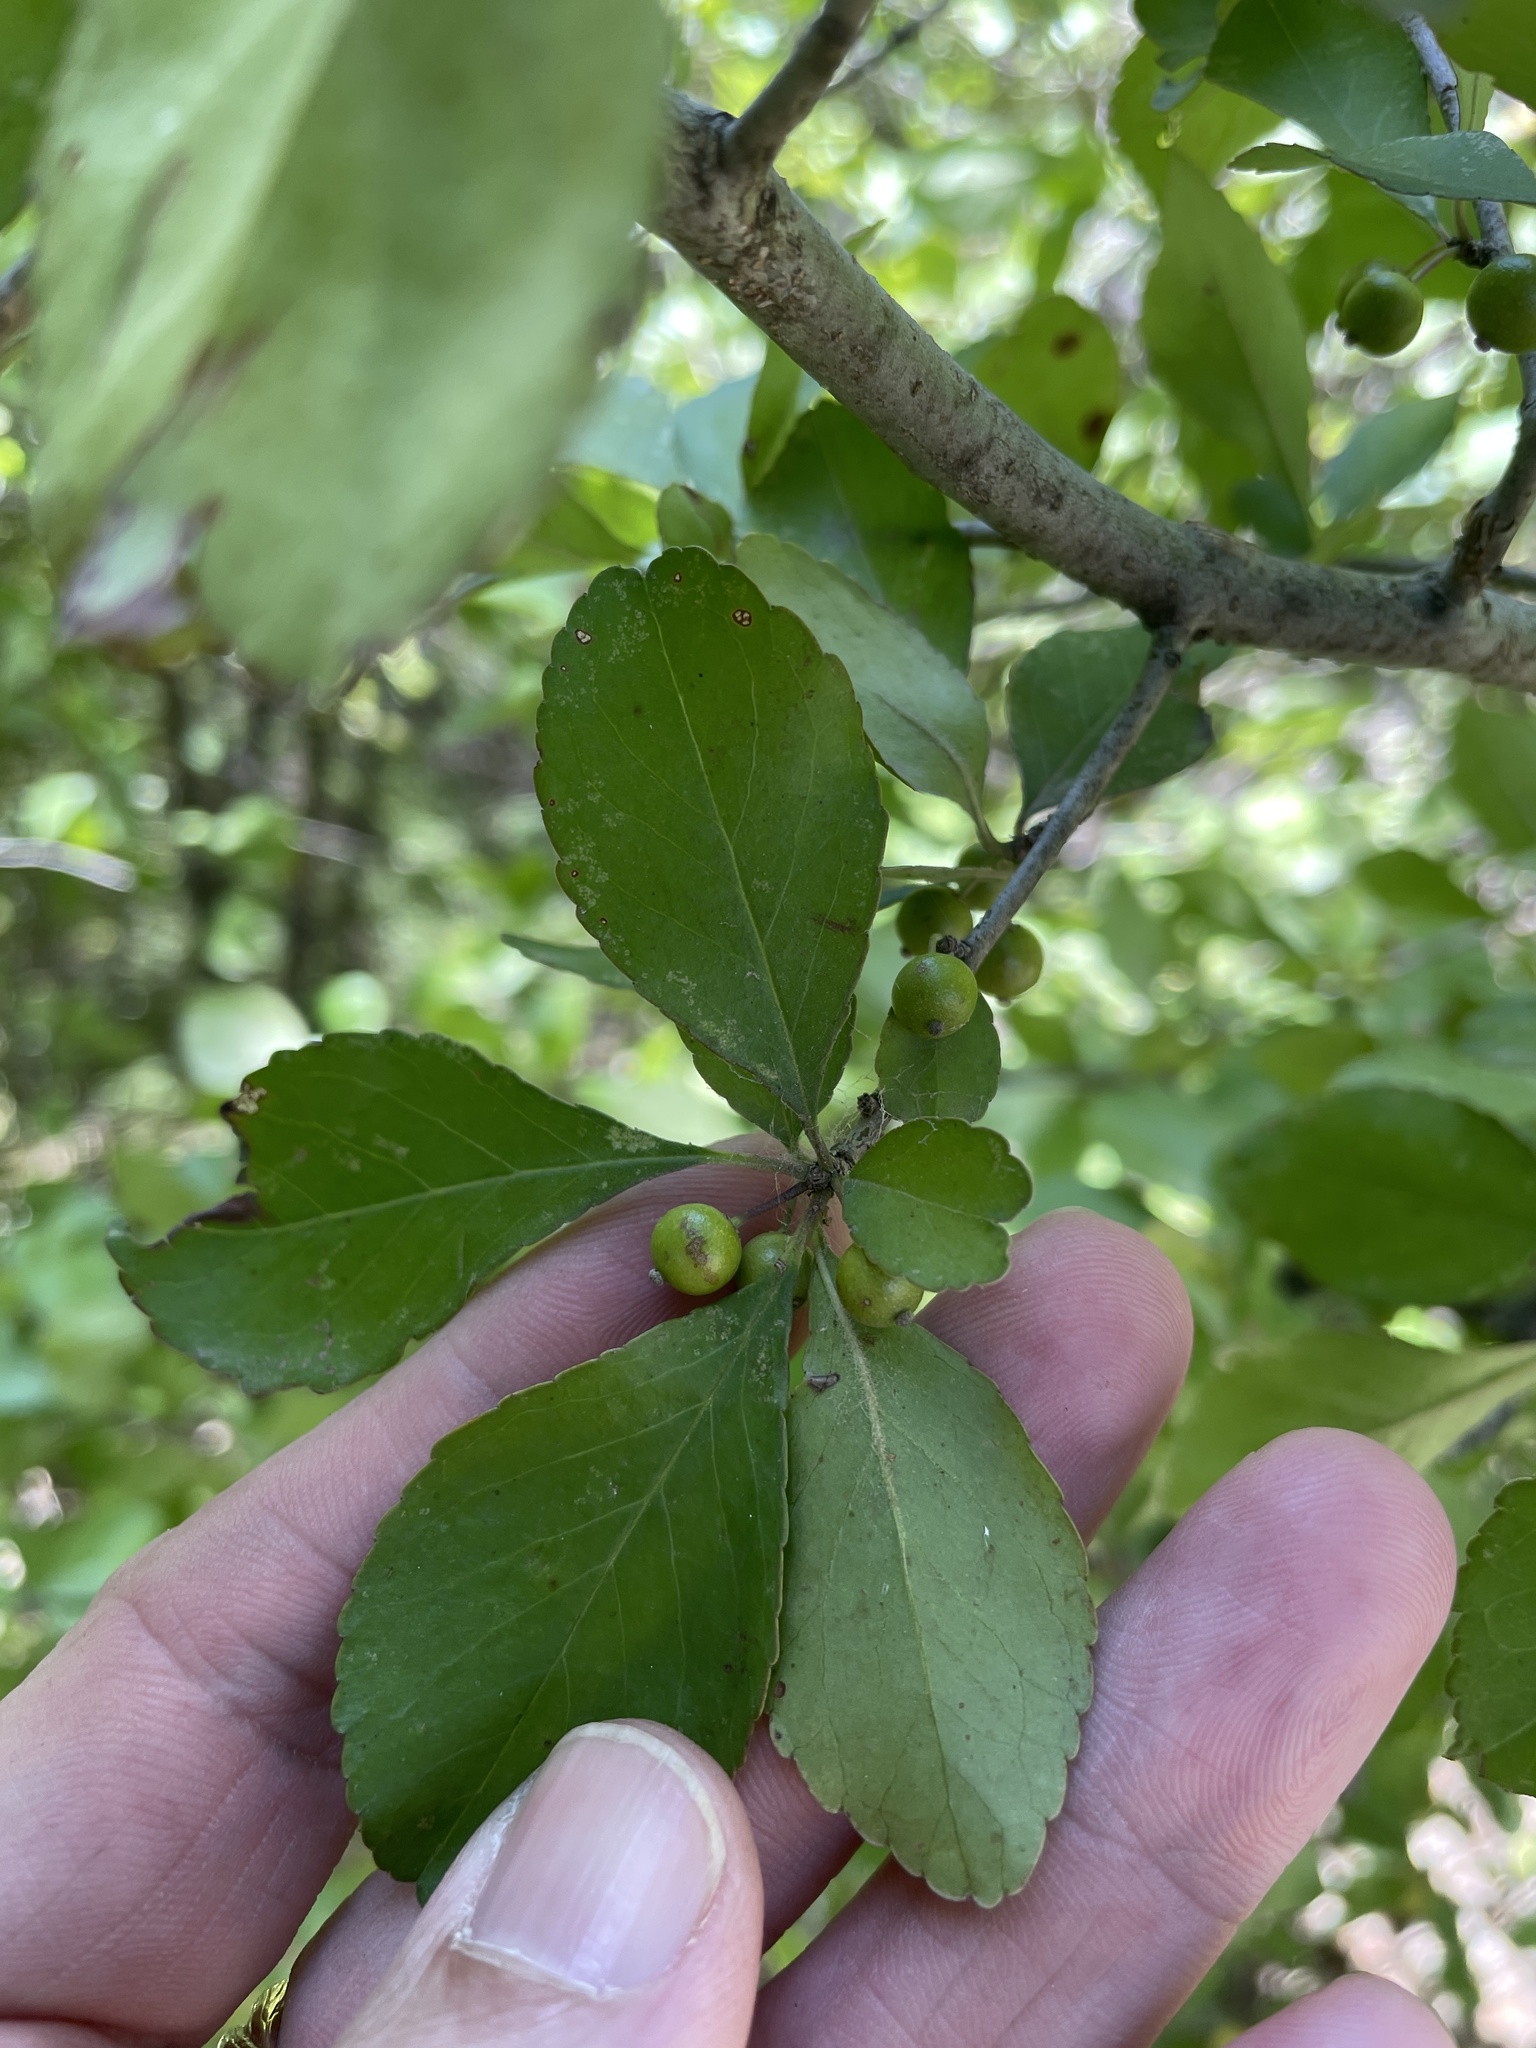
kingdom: Plantae
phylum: Tracheophyta
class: Magnoliopsida
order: Aquifoliales
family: Aquifoliaceae
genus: Ilex
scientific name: Ilex decidua
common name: Possum-haw
